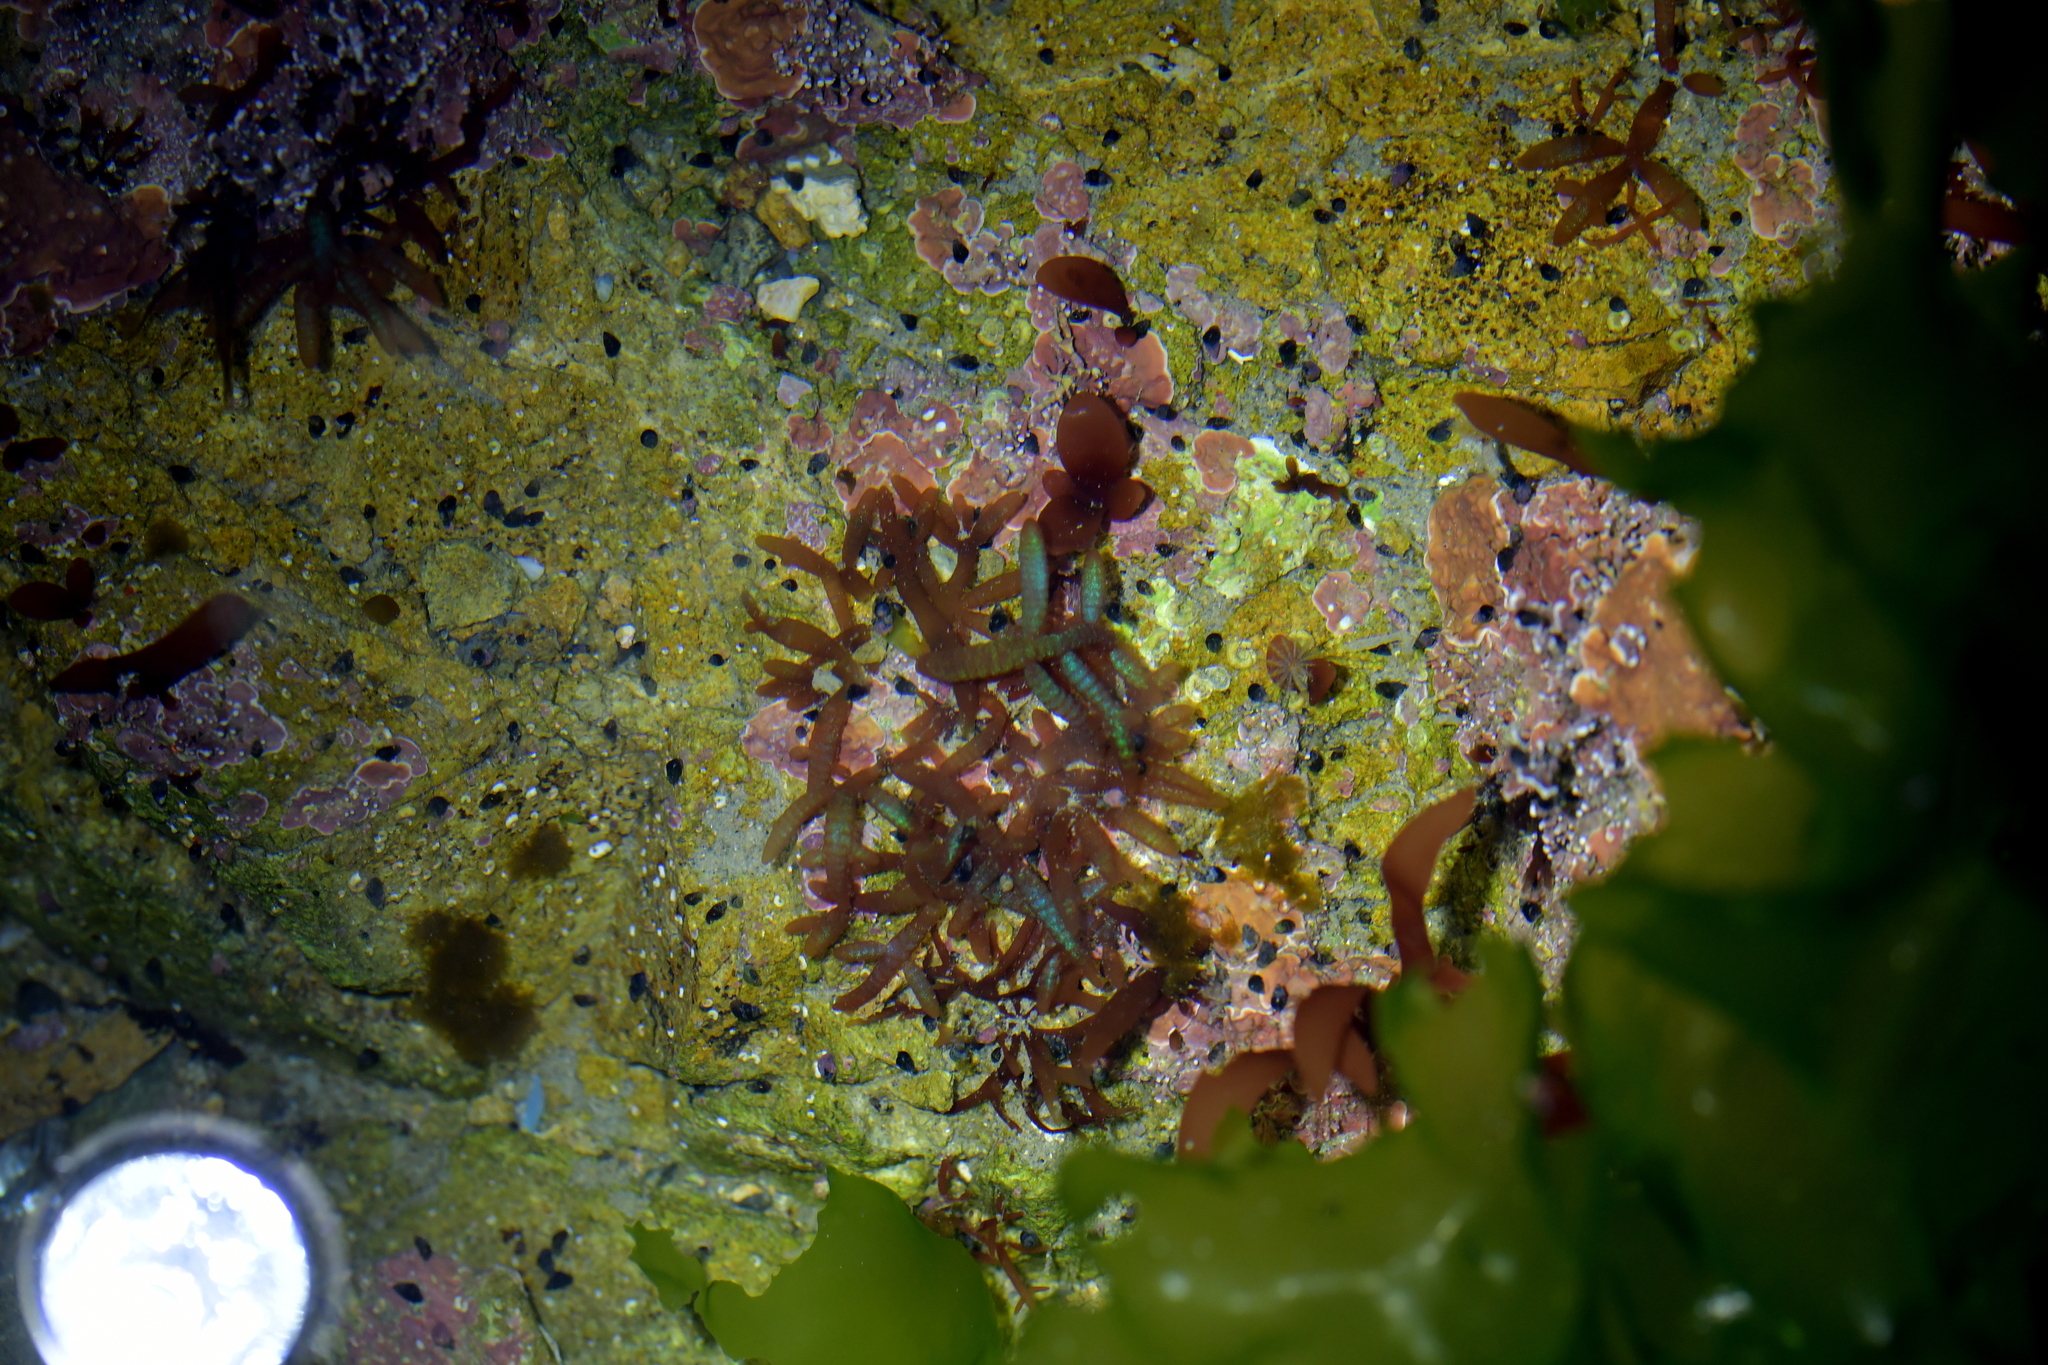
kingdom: Plantae
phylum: Rhodophyta
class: Florideophyceae
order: Rhodymeniales
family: Champiaceae
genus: Champia
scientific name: Champia laingii
